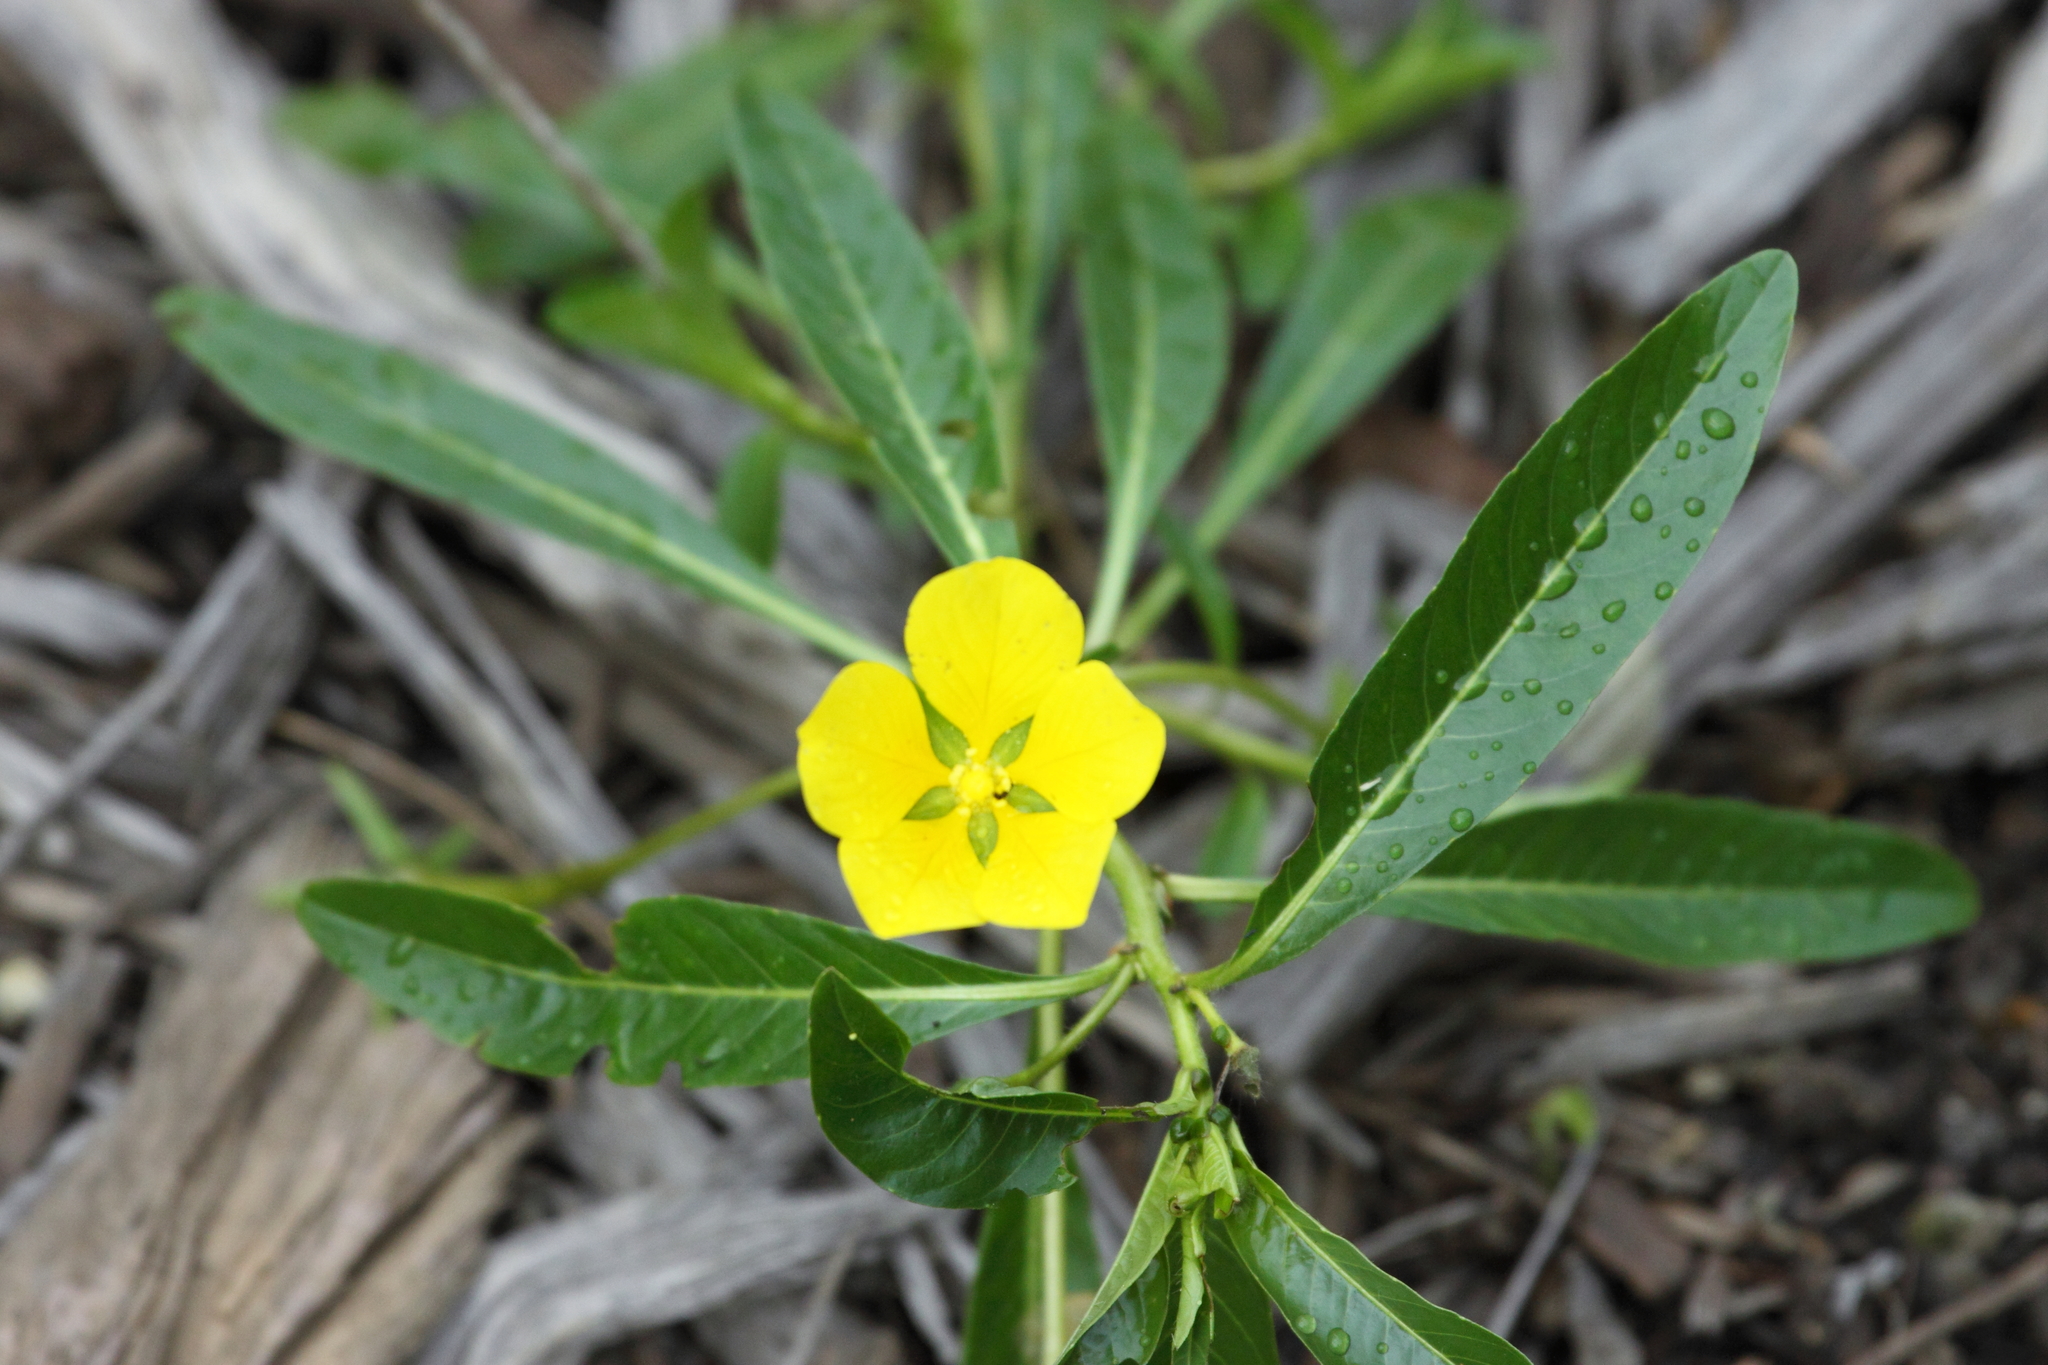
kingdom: Plantae
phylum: Tracheophyta
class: Magnoliopsida
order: Myrtales
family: Onagraceae
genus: Ludwigia
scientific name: Ludwigia peploides
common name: Floating primrose-willow
